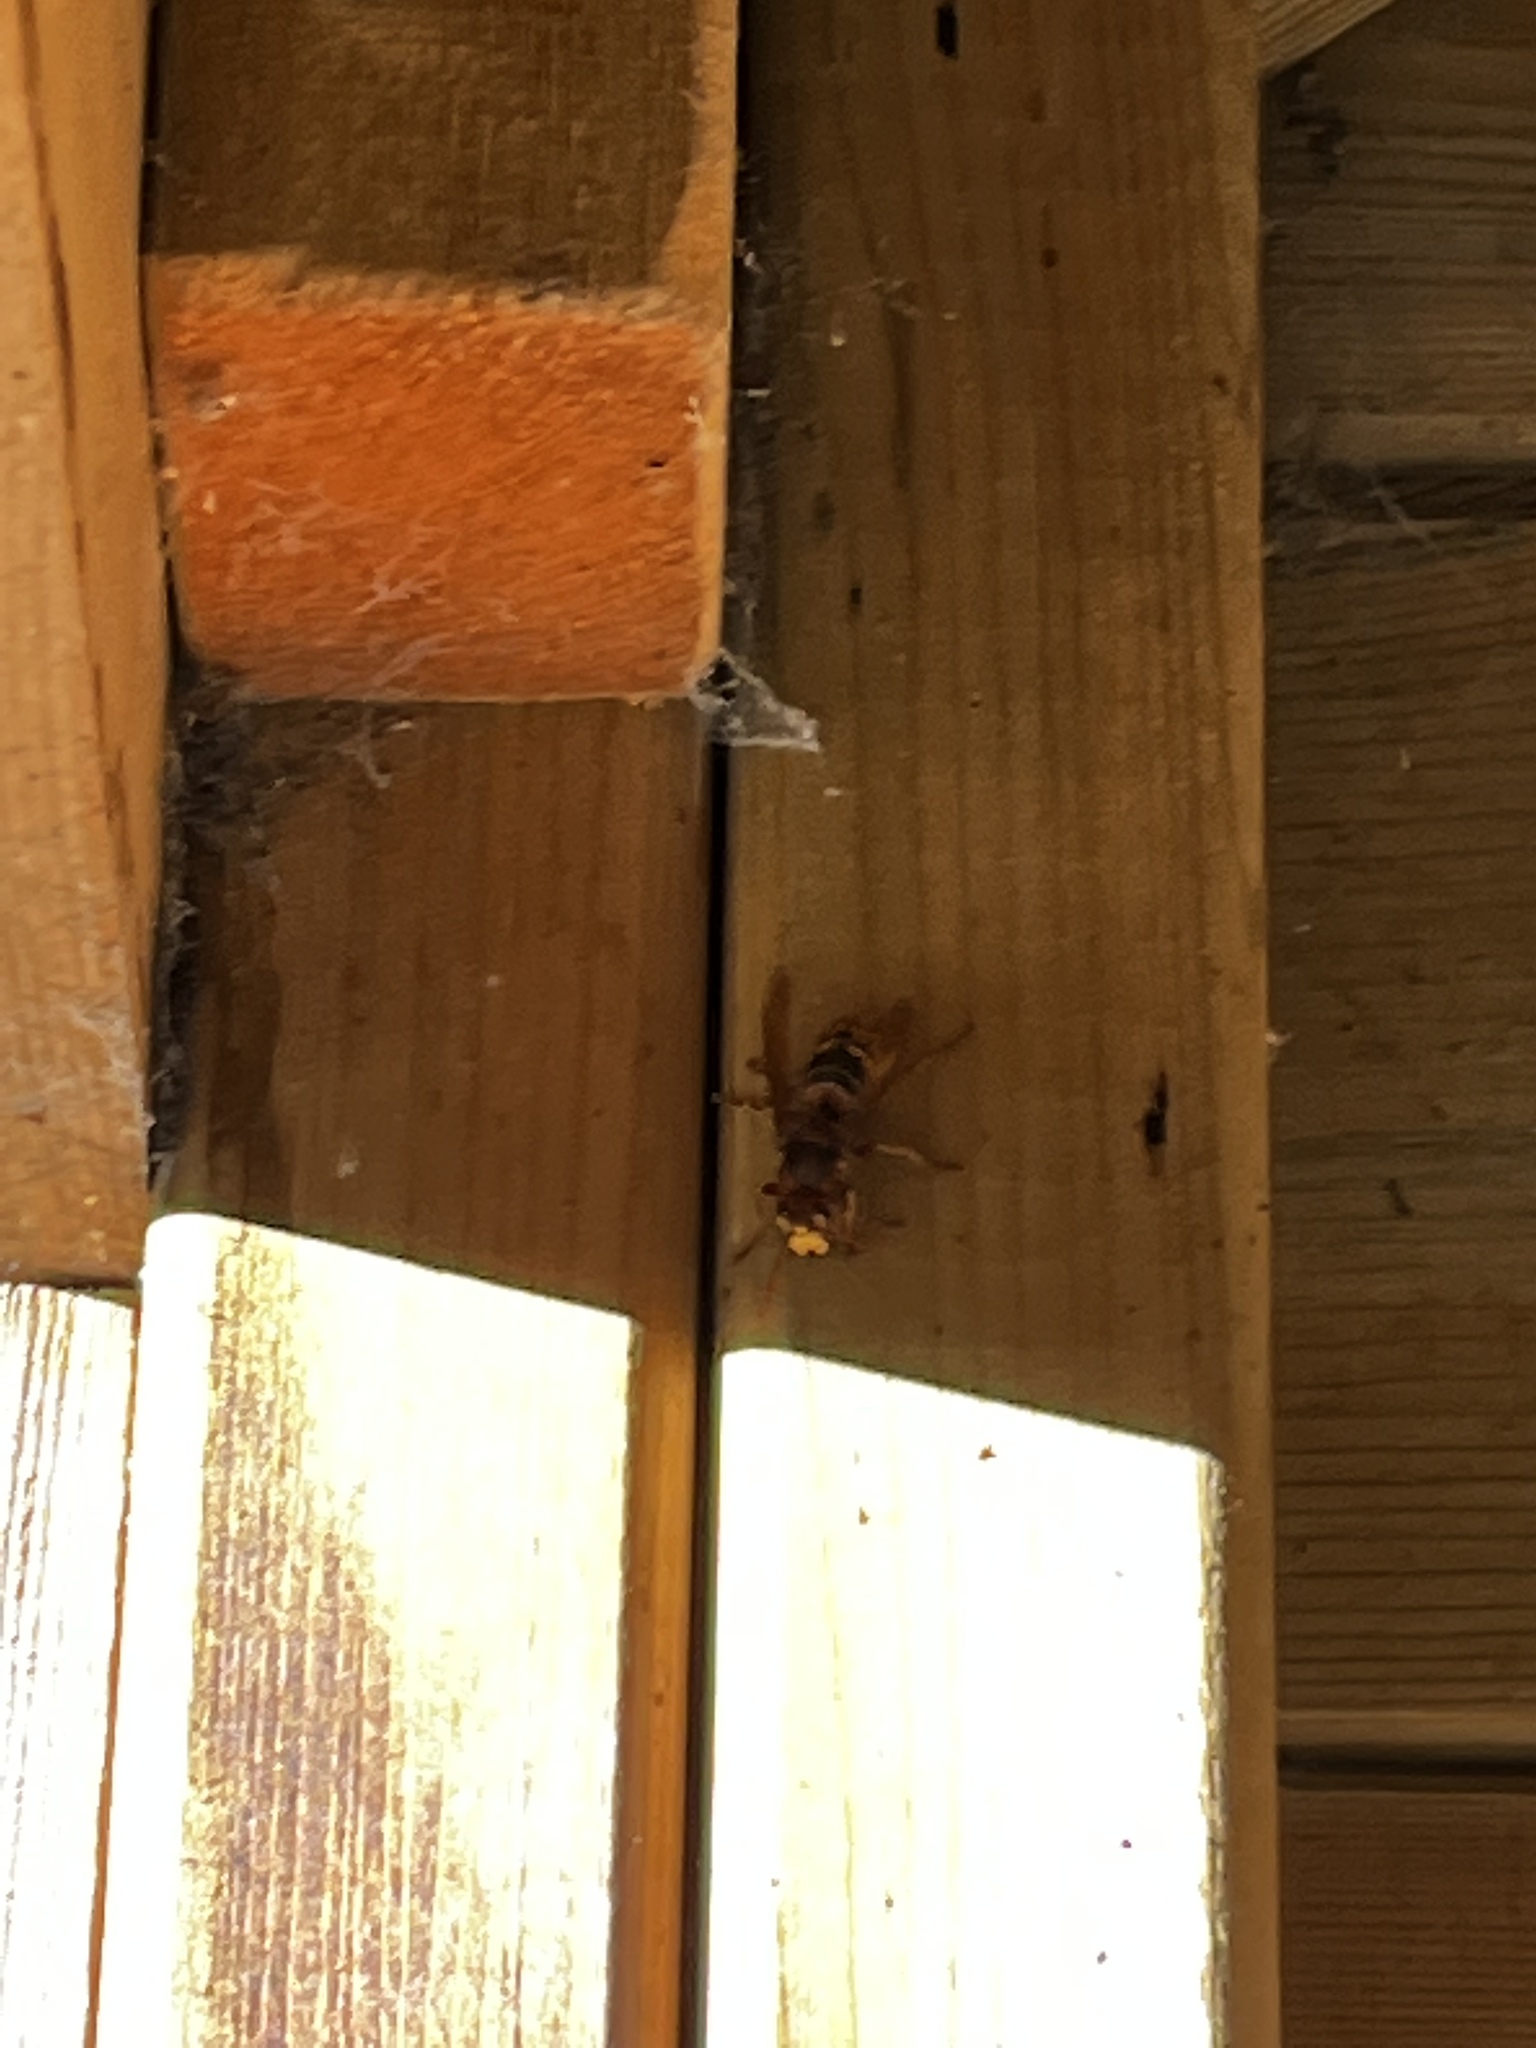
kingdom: Animalia
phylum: Arthropoda
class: Insecta
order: Hymenoptera
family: Vespidae
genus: Vespa
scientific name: Vespa crabro
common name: Hornet
